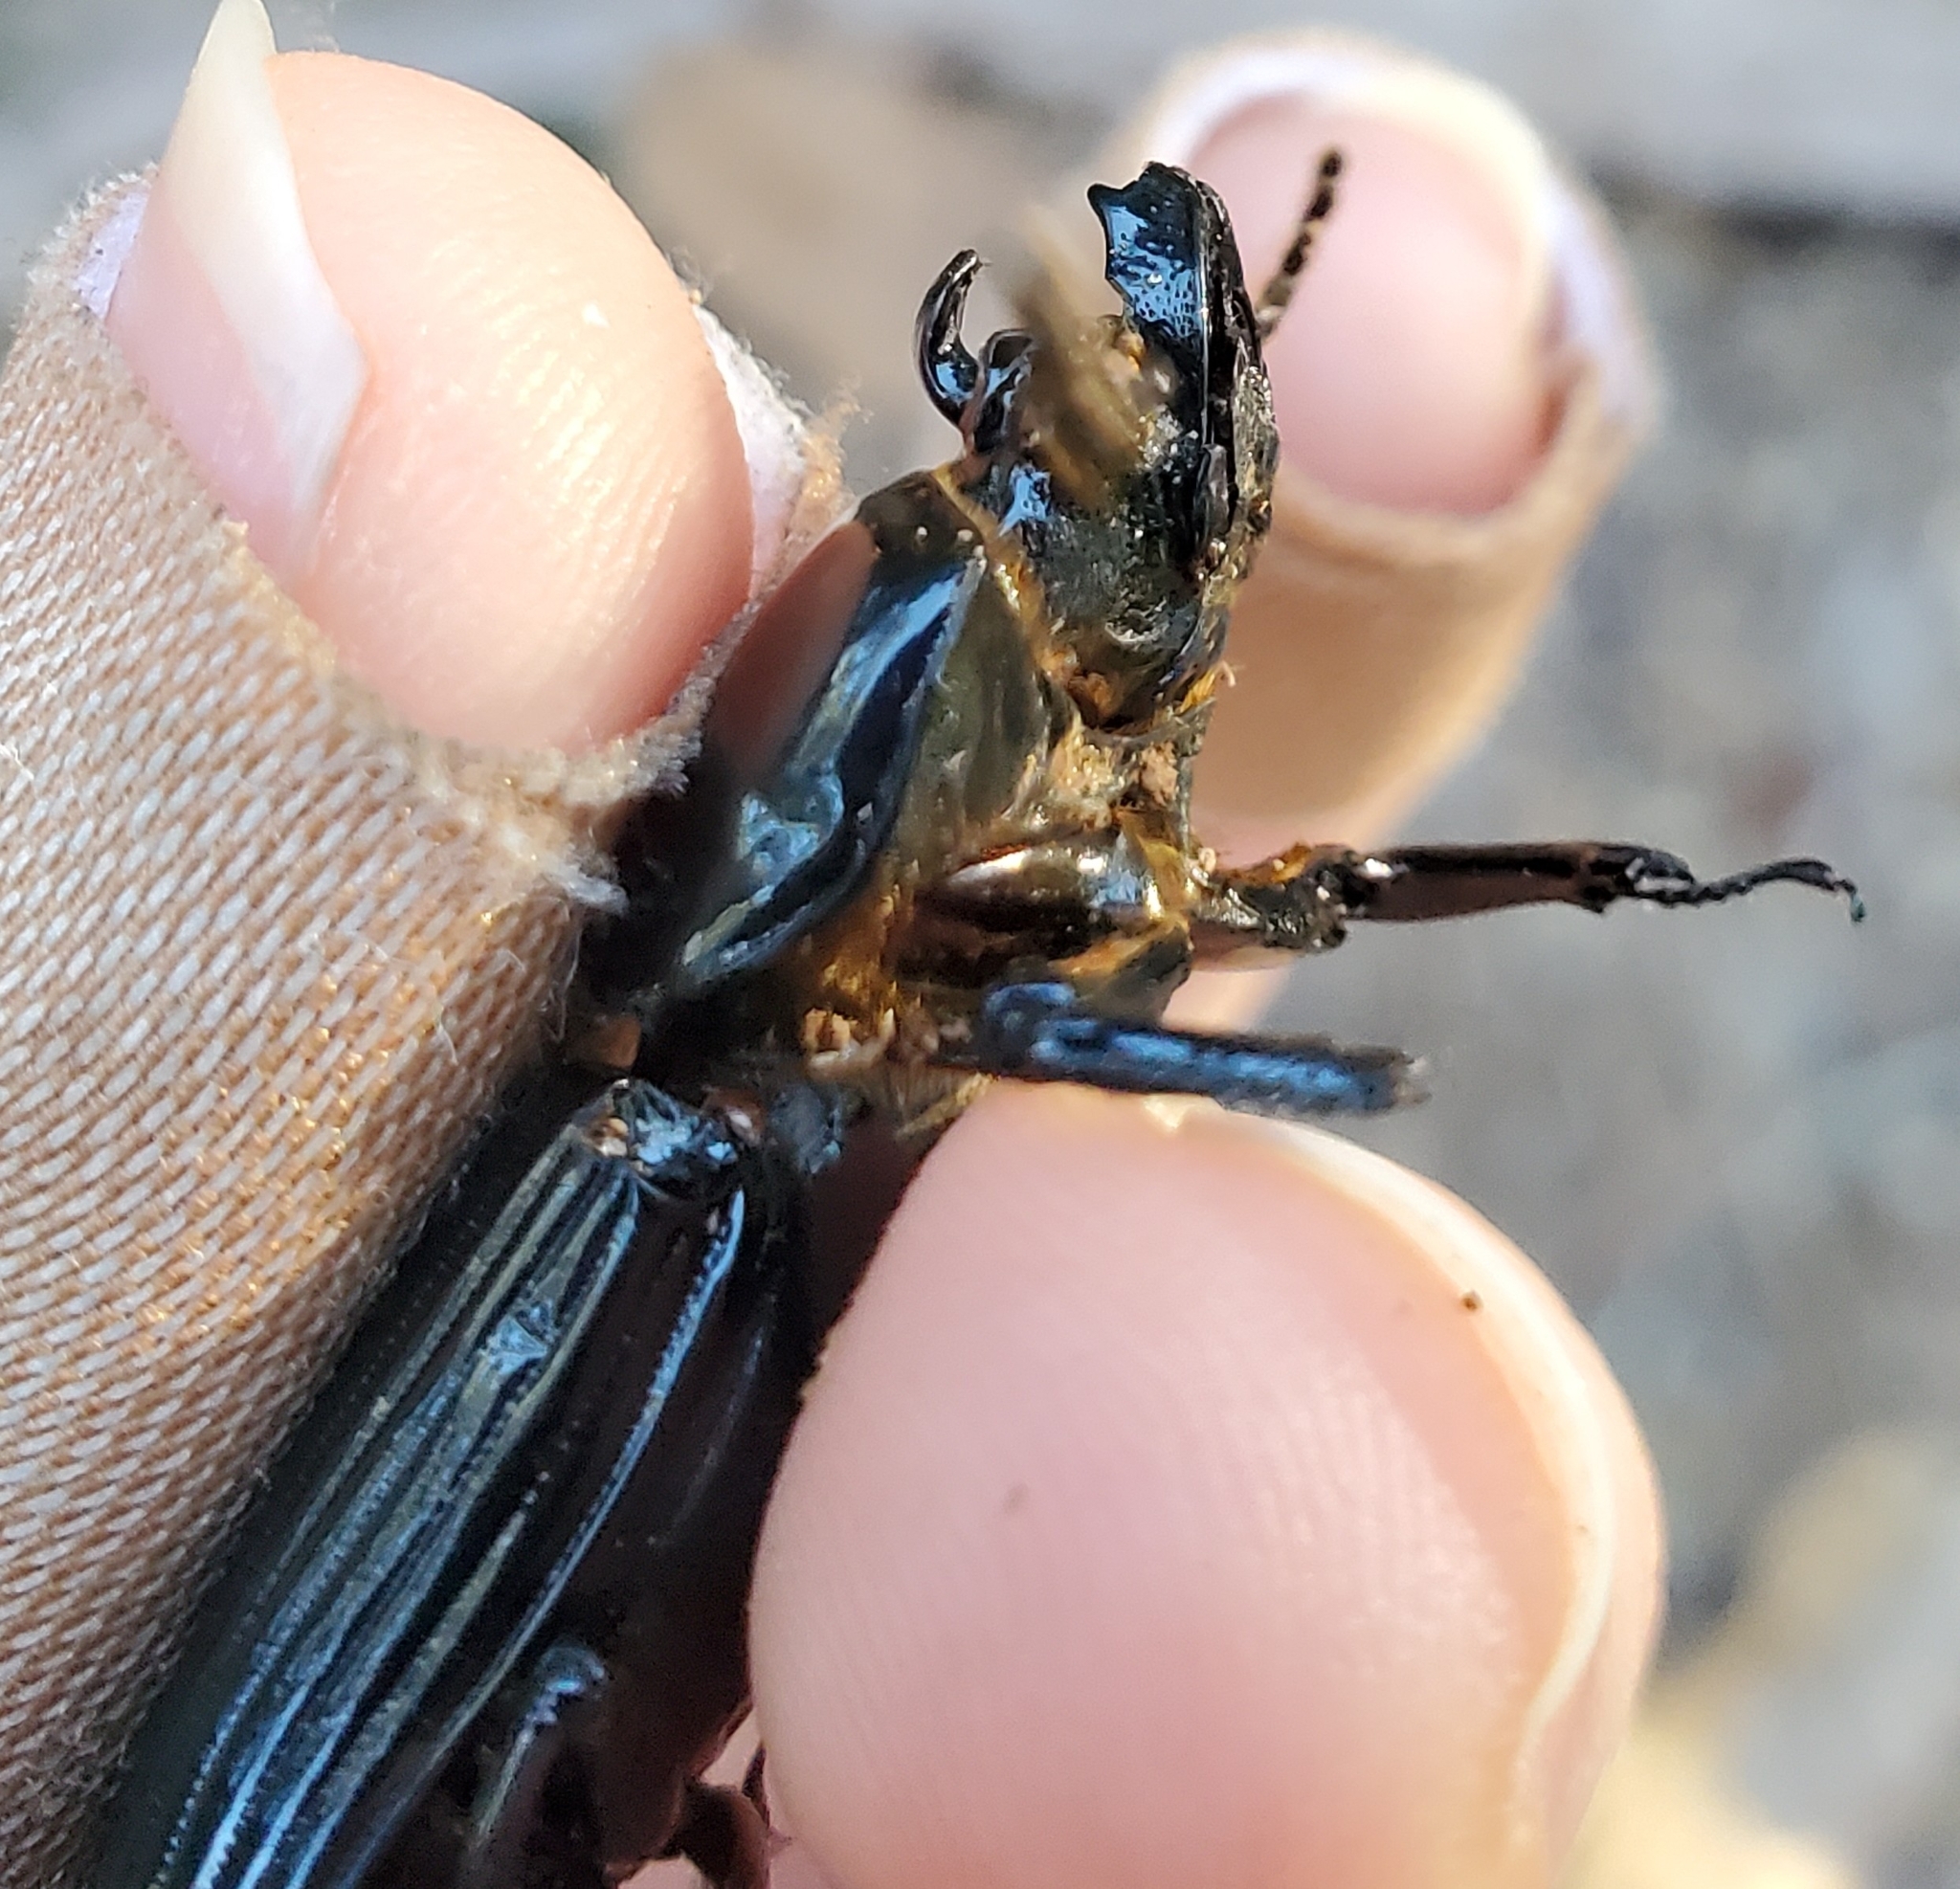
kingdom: Animalia
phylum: Arthropoda
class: Insecta
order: Coleoptera
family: Passalidae
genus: Odontotaenius
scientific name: Odontotaenius disjunctus
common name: Patent leather beetle
